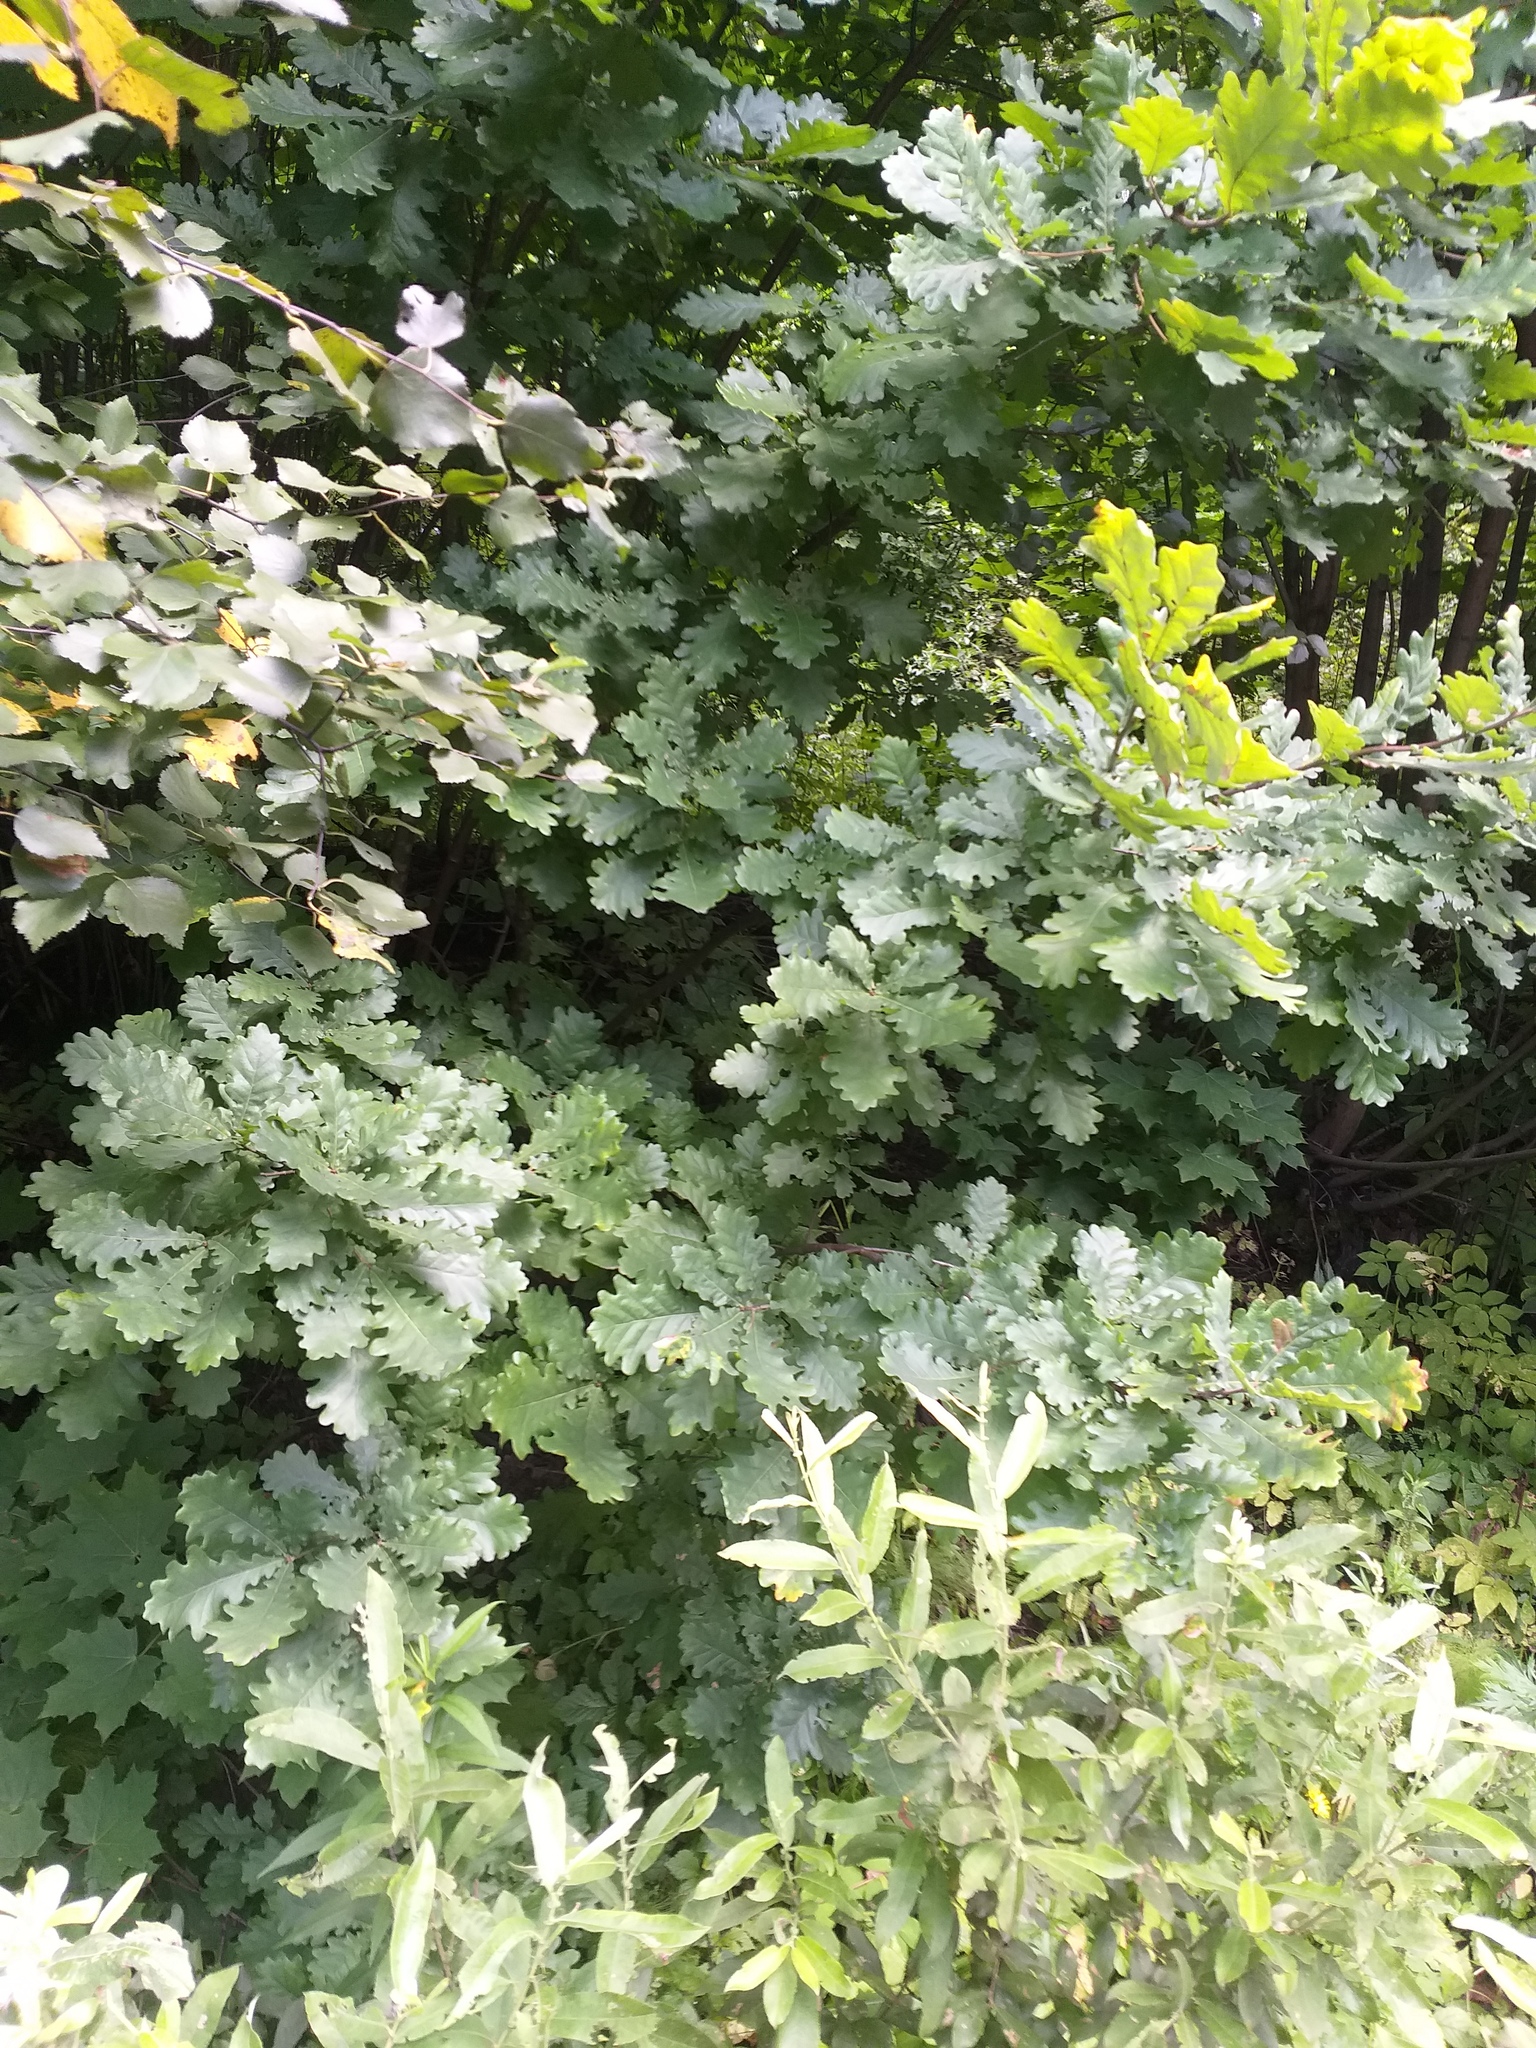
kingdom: Plantae
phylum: Tracheophyta
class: Magnoliopsida
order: Fagales
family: Fagaceae
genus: Quercus
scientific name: Quercus robur
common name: Pedunculate oak
